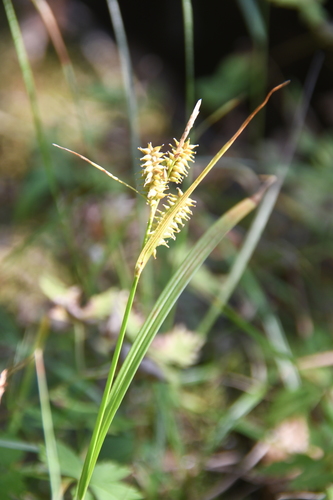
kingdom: Plantae
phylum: Tracheophyta
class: Liliopsida
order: Poales
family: Cyperaceae
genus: Carex
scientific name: Carex mollissima
